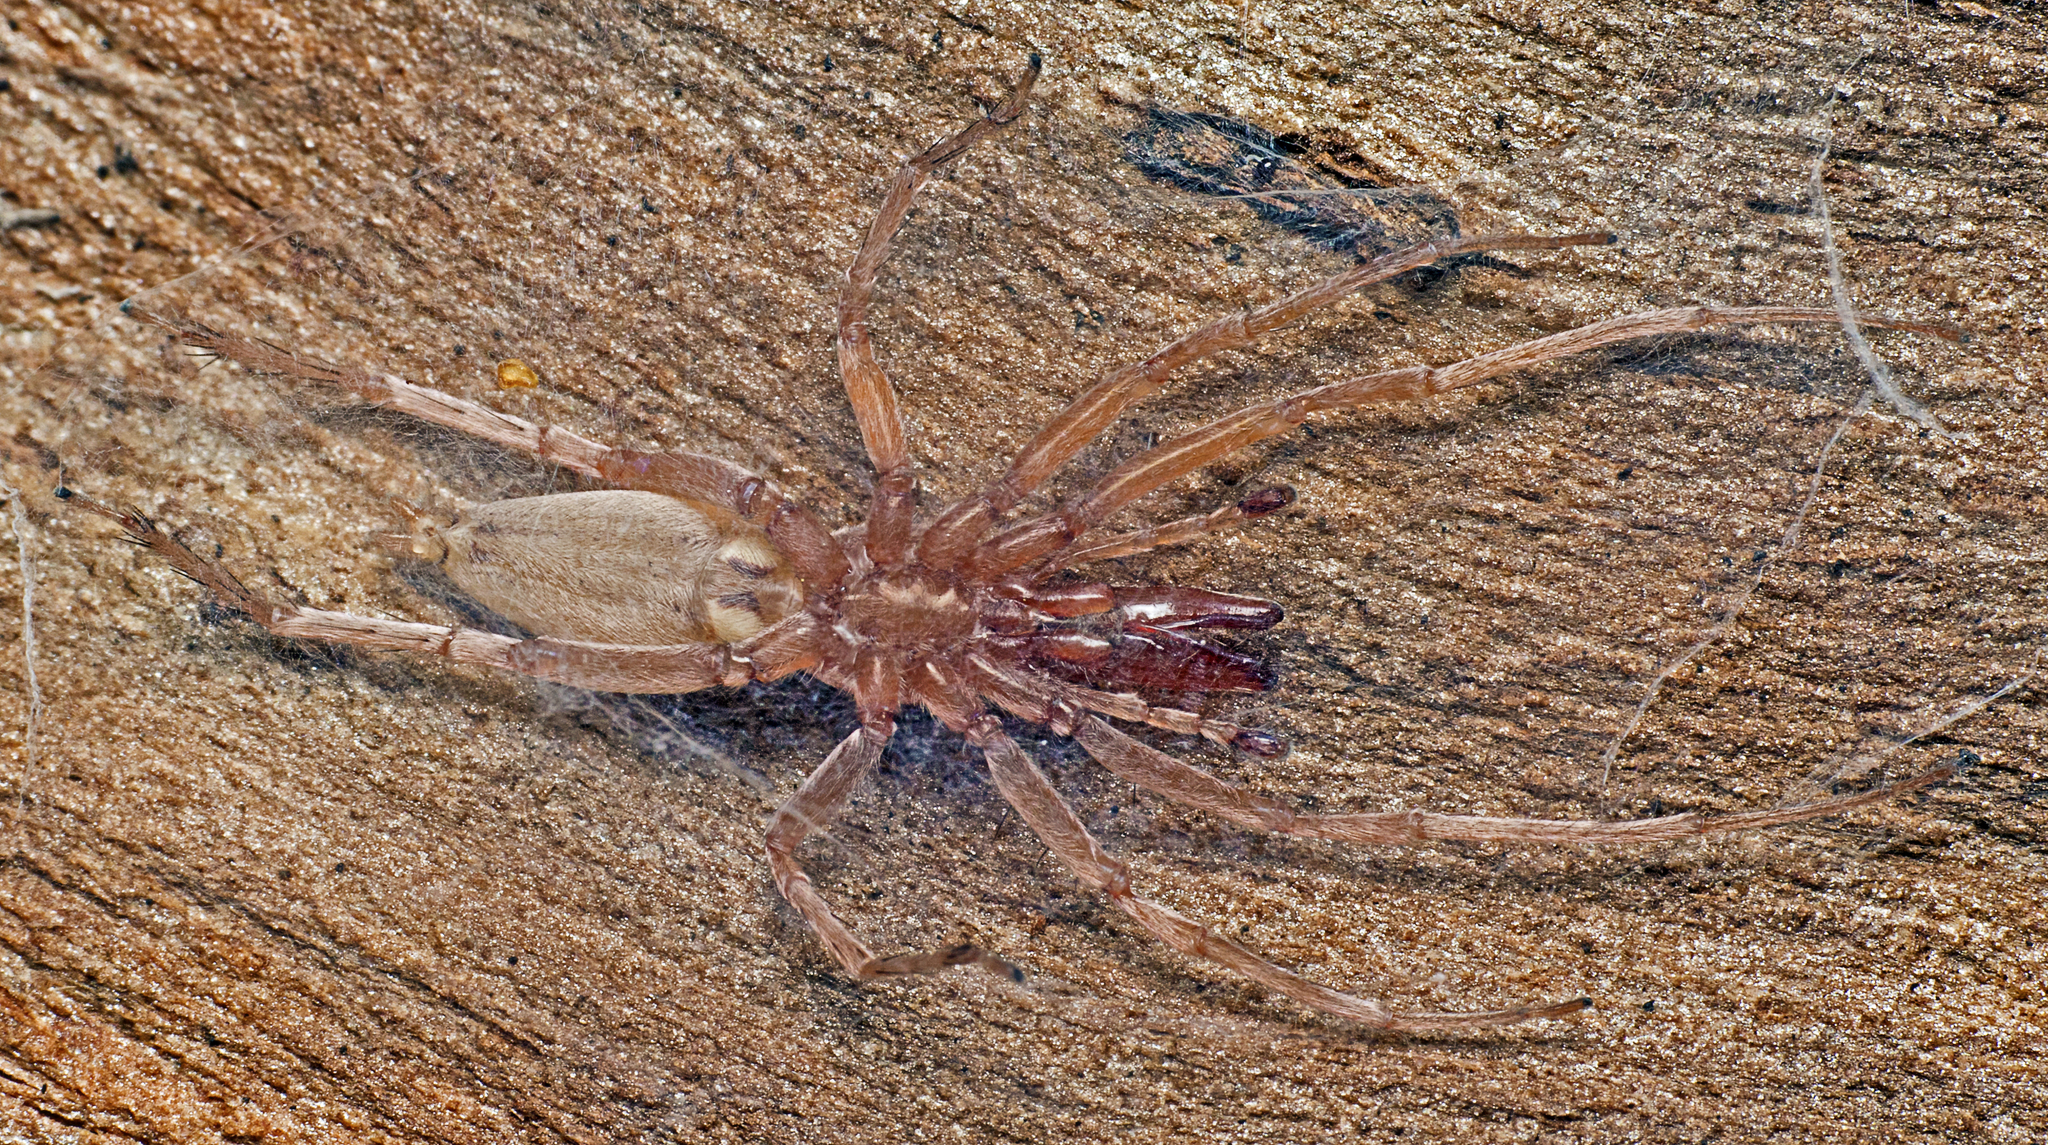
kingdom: Animalia
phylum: Arthropoda
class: Arachnida
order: Araneae
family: Clubionidae
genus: Clubiona
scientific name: Clubiona cycladata
